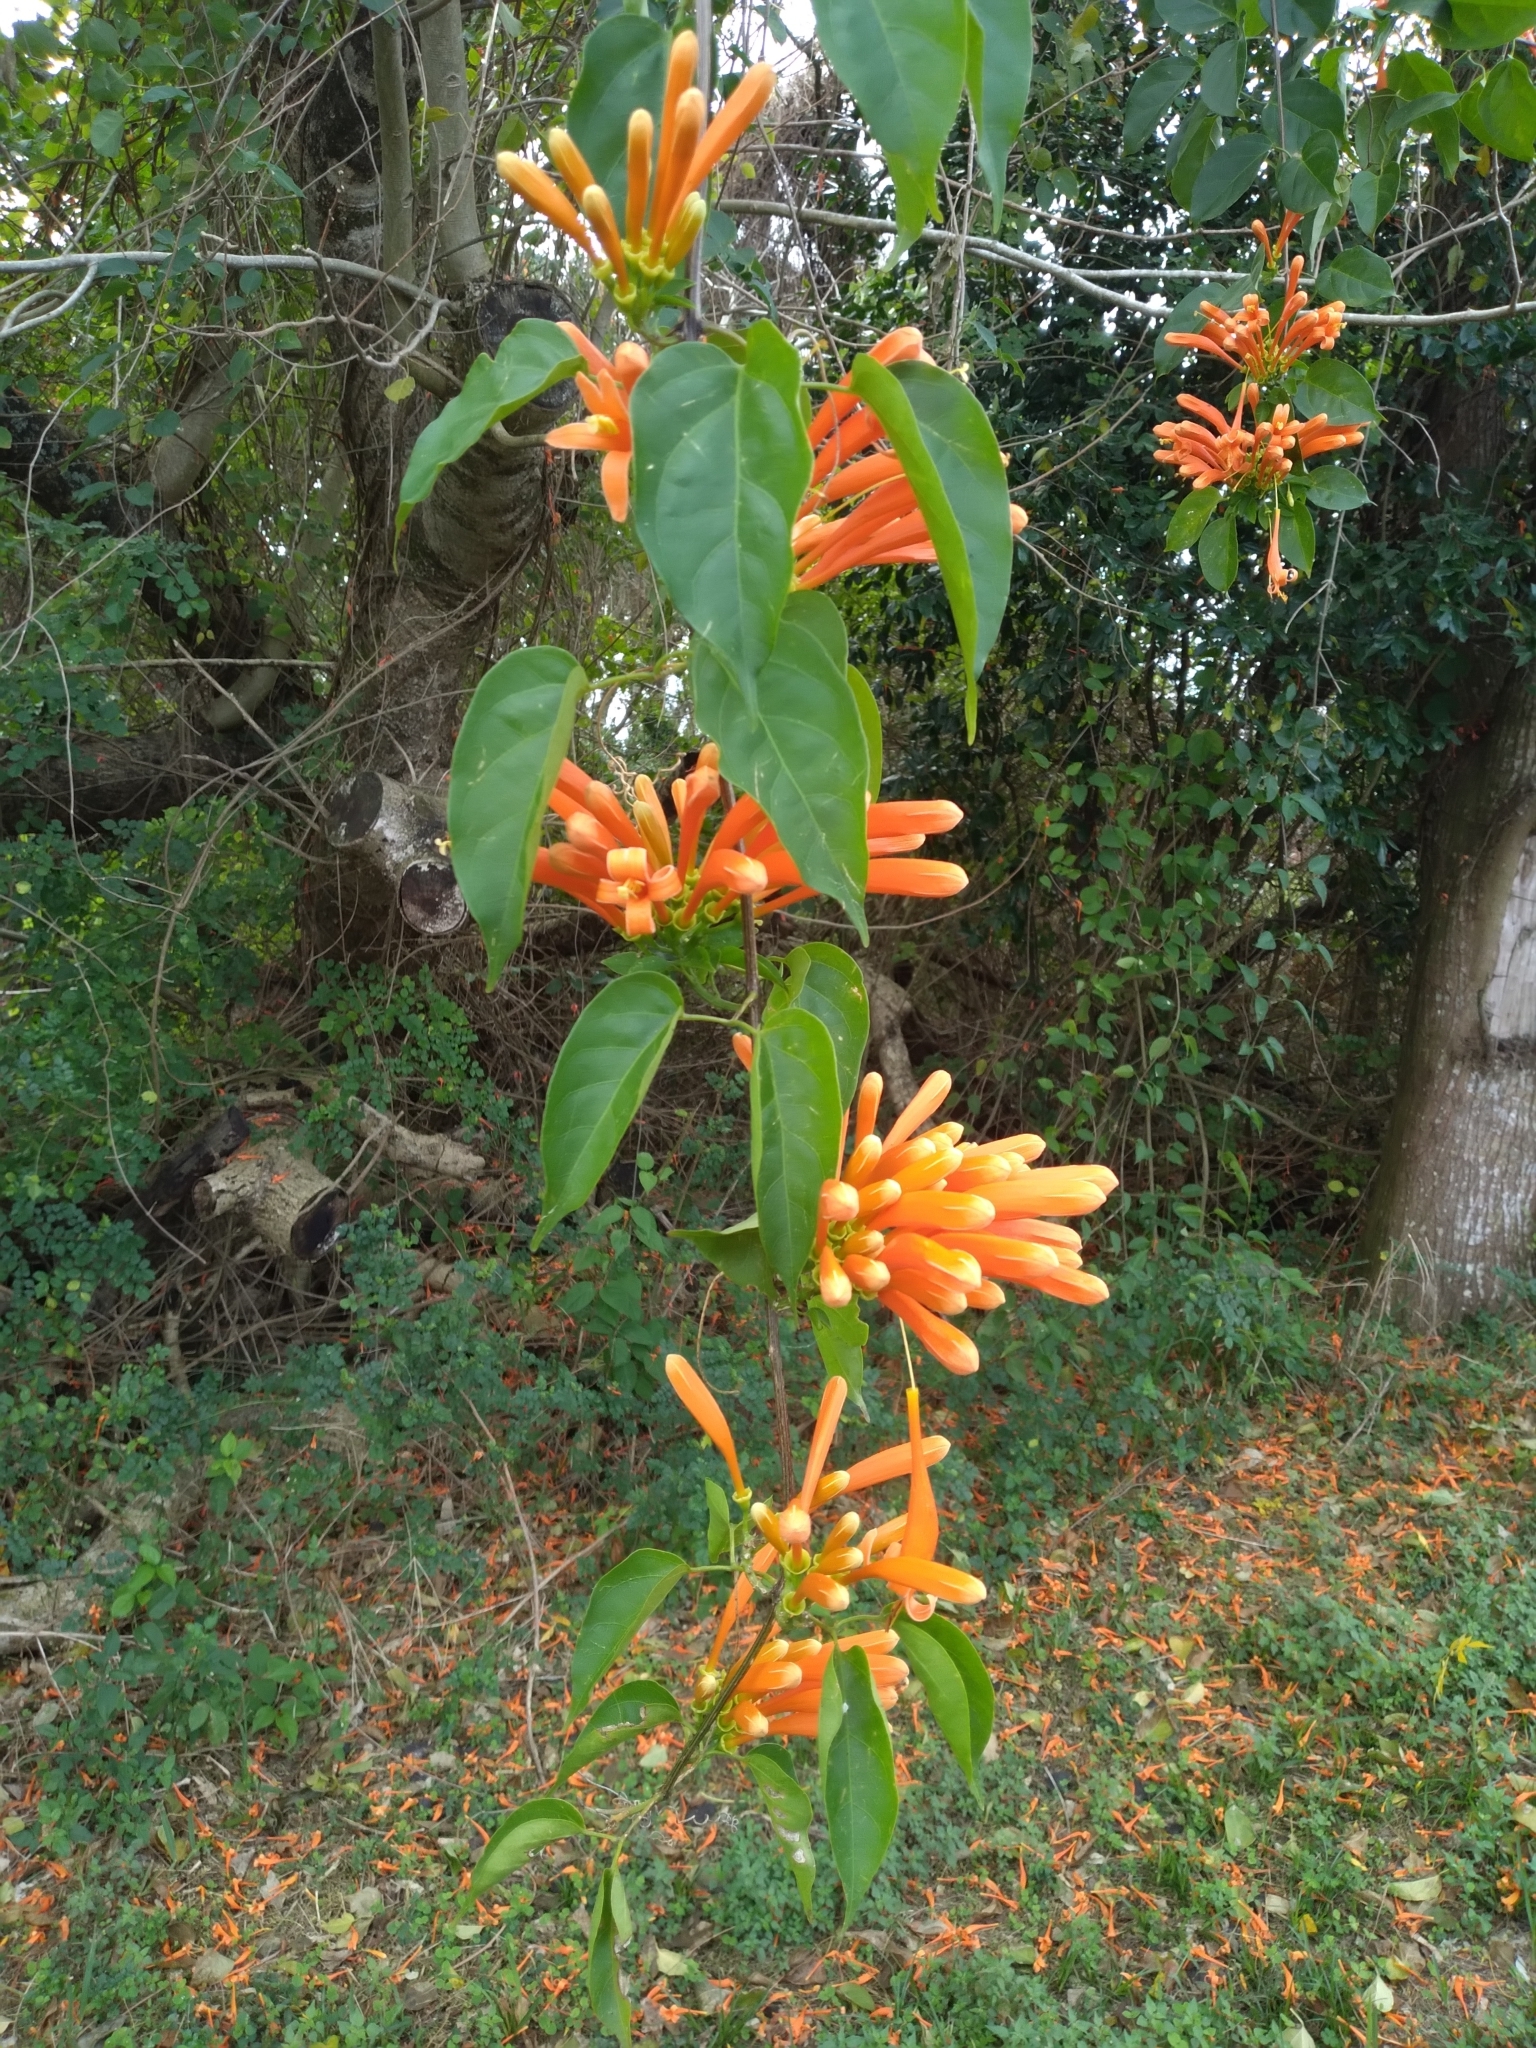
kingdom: Plantae
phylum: Tracheophyta
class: Magnoliopsida
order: Lamiales
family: Bignoniaceae
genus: Pyrostegia
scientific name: Pyrostegia venusta
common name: Flamevine
